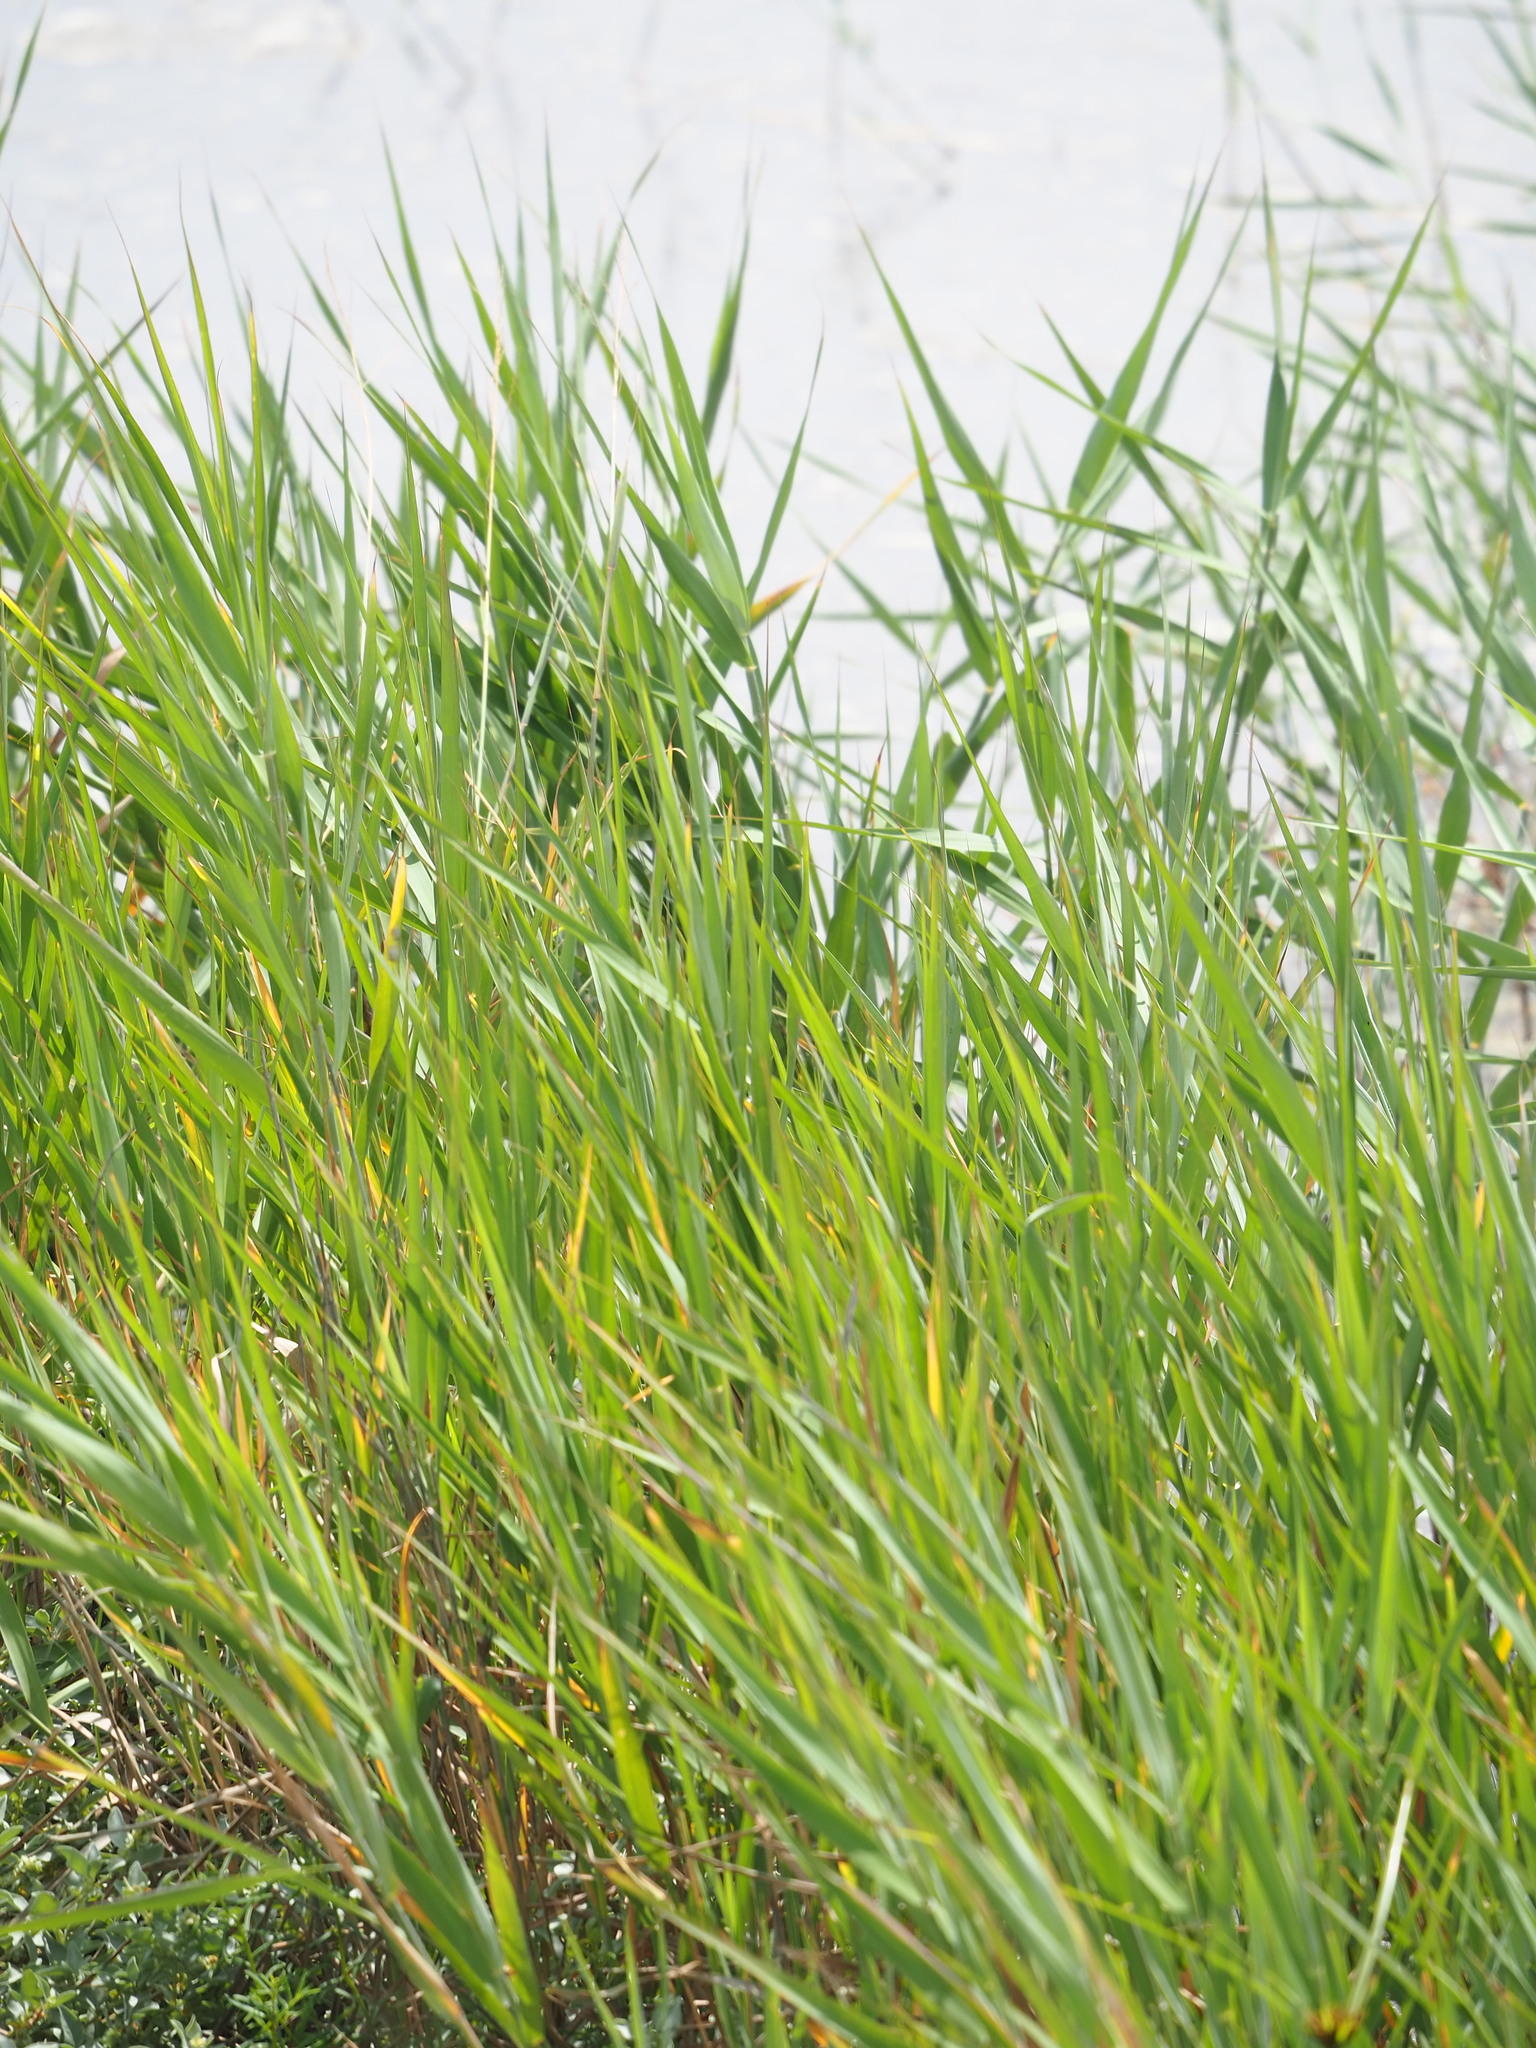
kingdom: Plantae
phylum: Tracheophyta
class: Liliopsida
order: Poales
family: Poaceae
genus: Phragmites
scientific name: Phragmites australis
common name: Common reed
